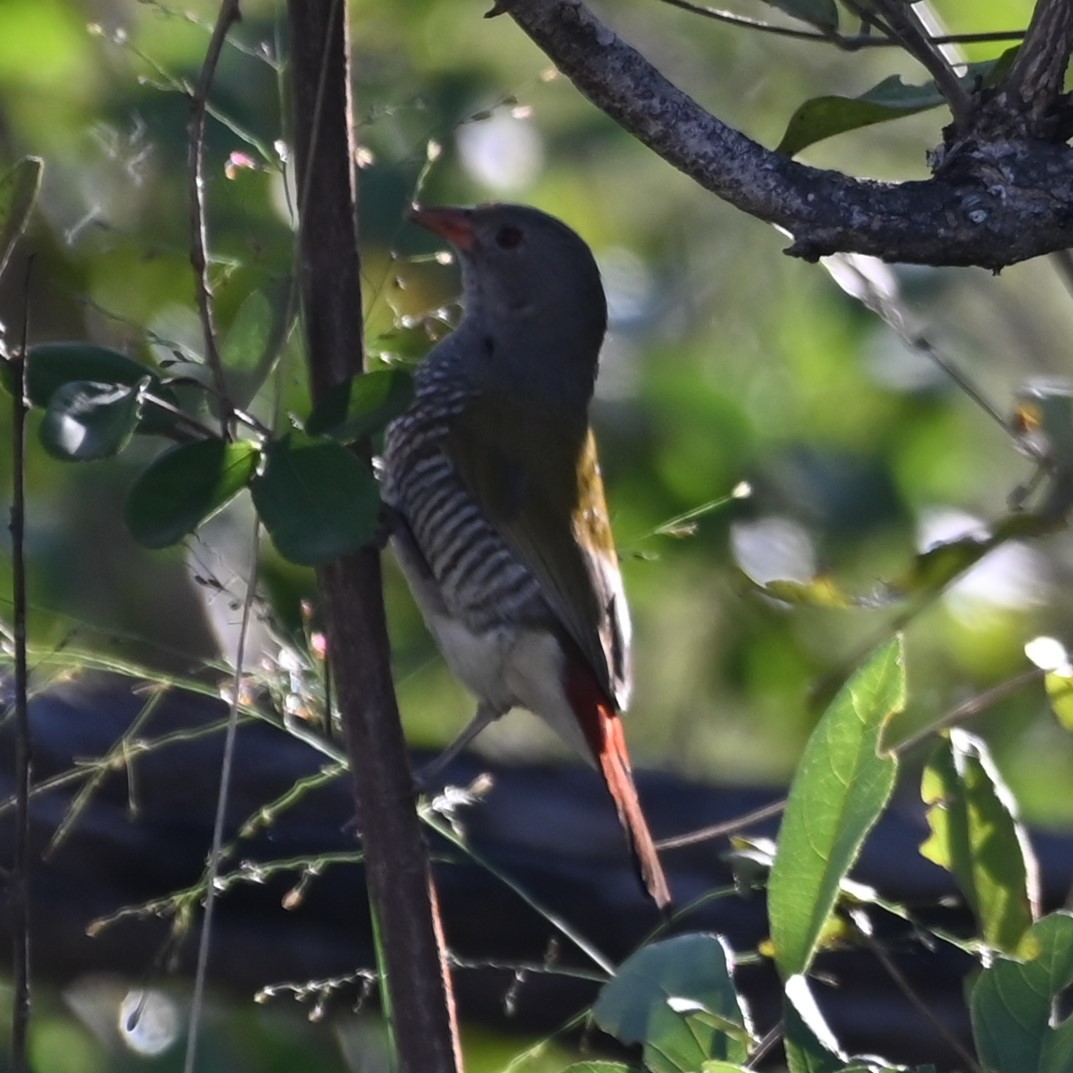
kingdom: Animalia
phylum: Chordata
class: Aves
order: Passeriformes
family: Estrildidae
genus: Pytilia
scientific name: Pytilia melba
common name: Green-winged pytilia
